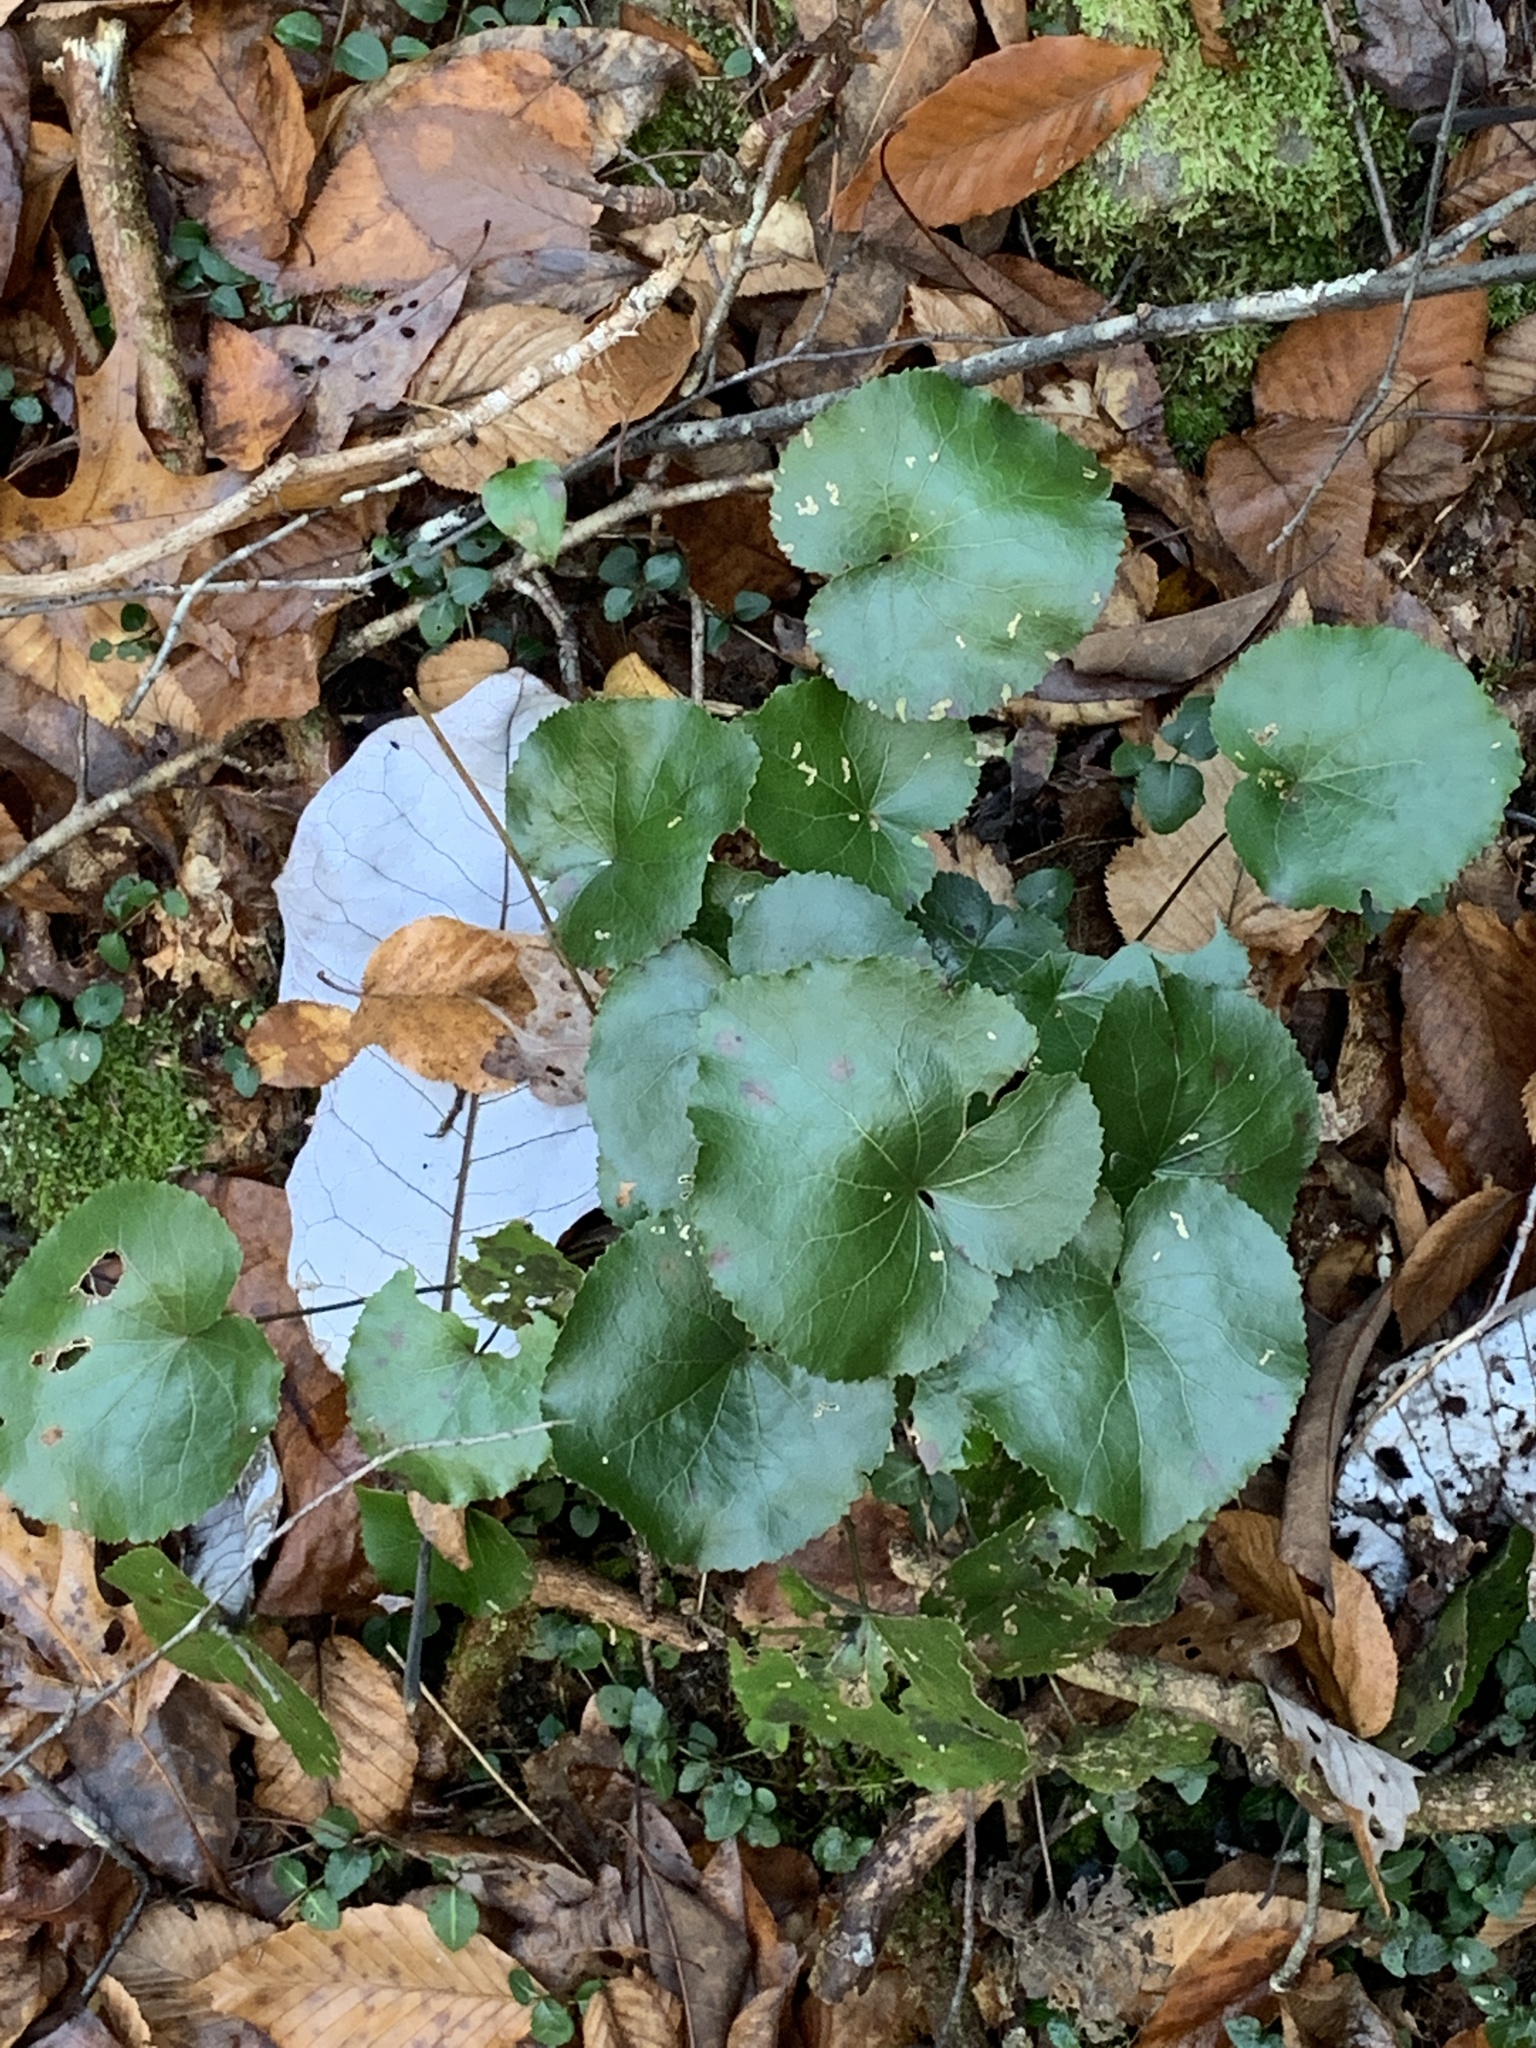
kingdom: Plantae
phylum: Tracheophyta
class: Magnoliopsida
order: Ericales
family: Diapensiaceae
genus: Galax
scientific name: Galax urceolata
